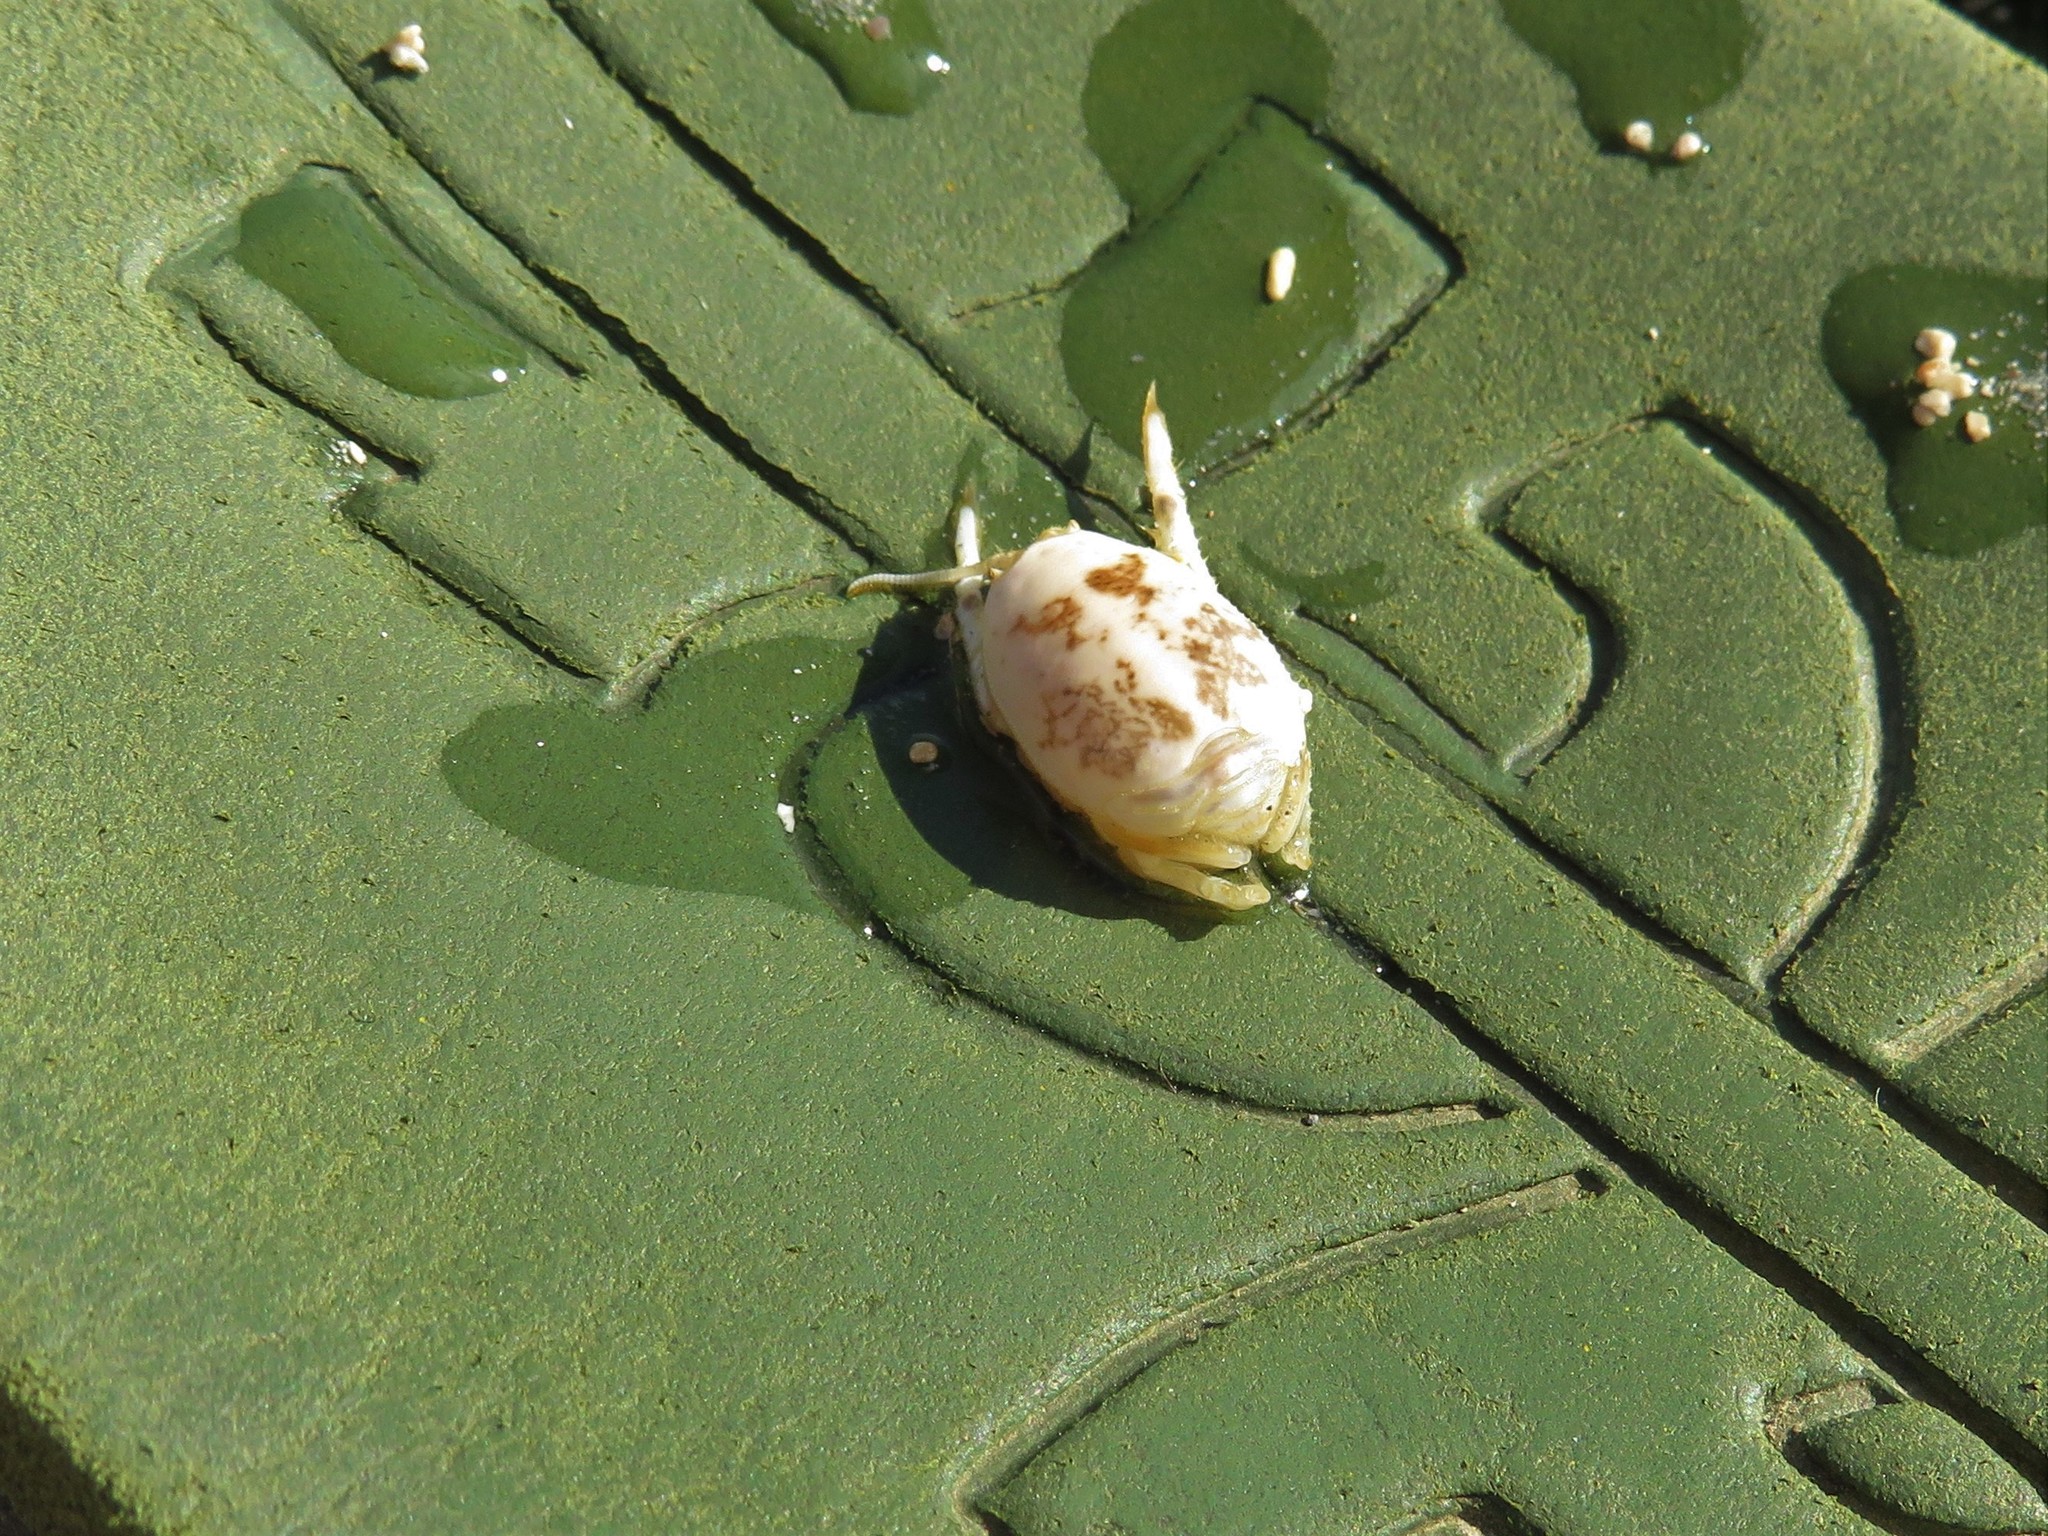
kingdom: Animalia
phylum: Arthropoda
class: Malacostraca
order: Decapoda
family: Hippidae
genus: Hippa
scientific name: Hippa testudinaria
